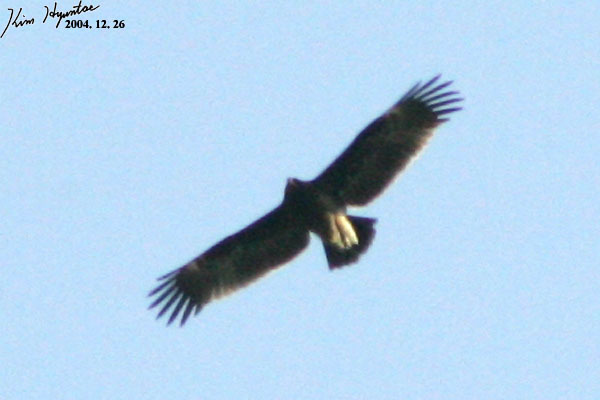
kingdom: Animalia
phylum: Chordata
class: Aves
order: Accipitriformes
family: Accipitridae
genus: Aquila
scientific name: Aquila clanga
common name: Greater spotted eagle
